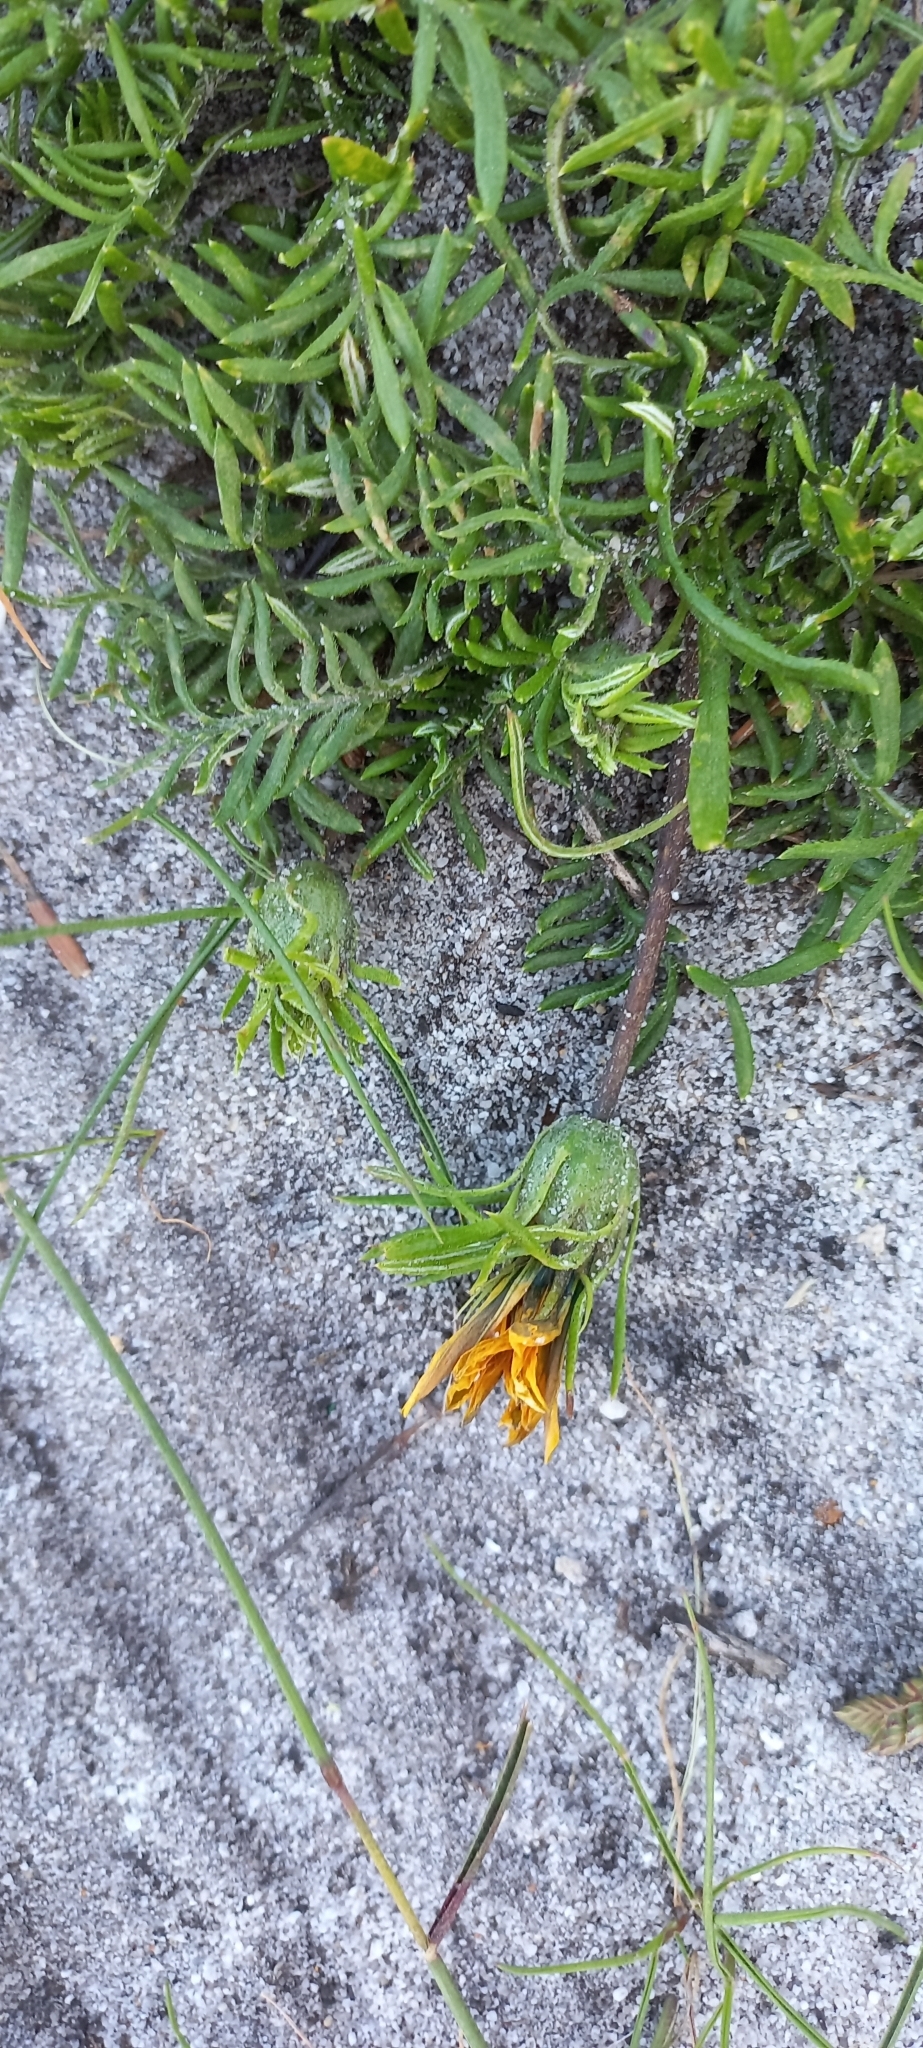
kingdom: Plantae
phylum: Tracheophyta
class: Magnoliopsida
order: Asterales
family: Asteraceae
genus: Gazania
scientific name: Gazania pectinata
